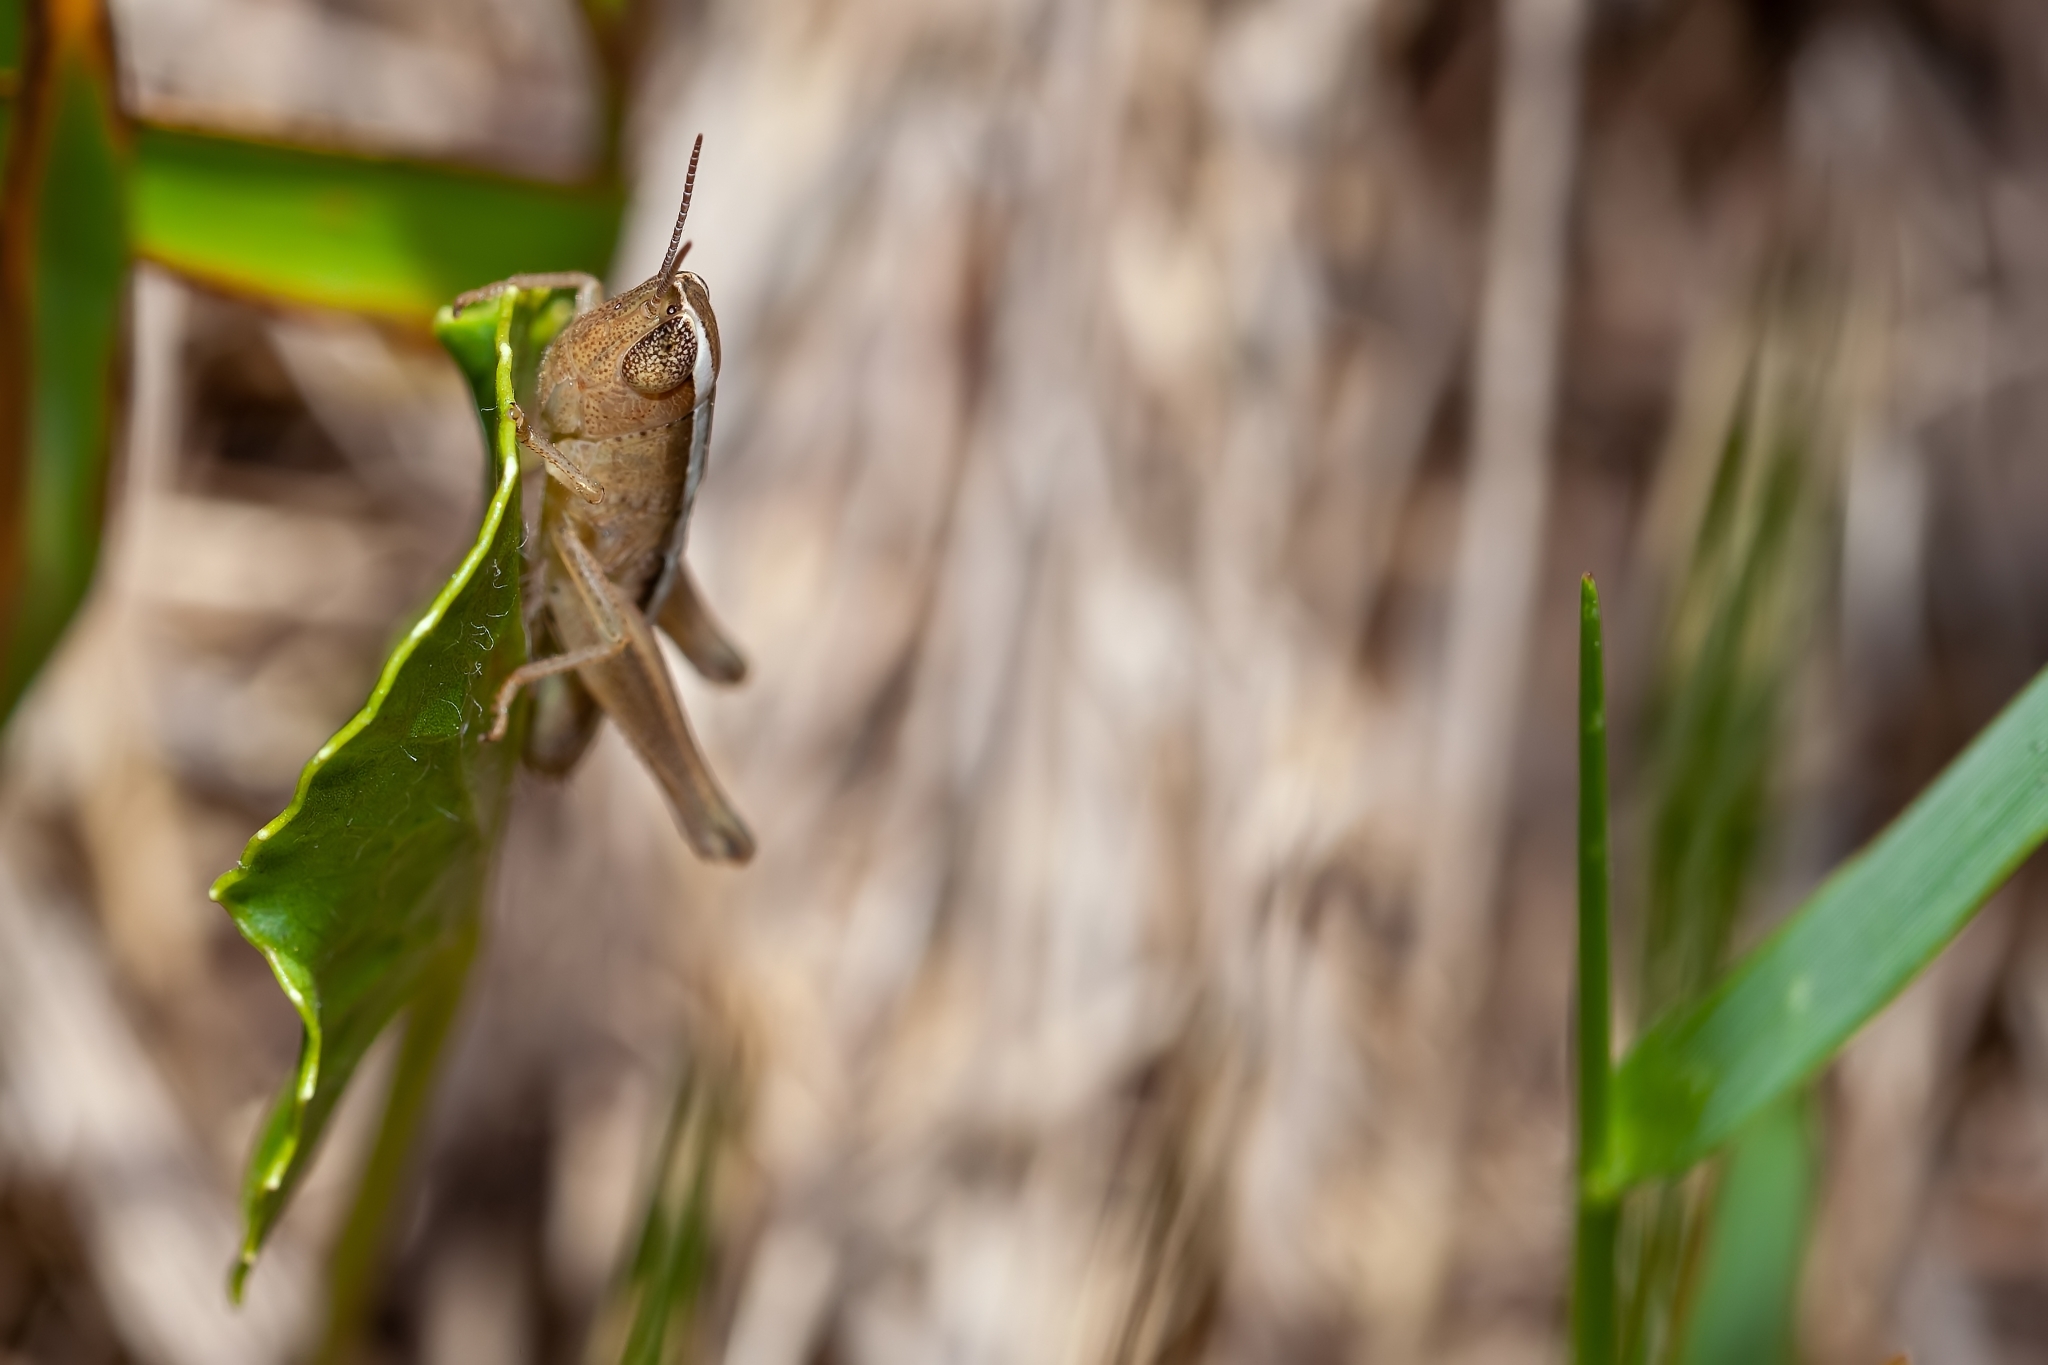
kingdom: Animalia
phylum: Arthropoda
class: Insecta
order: Orthoptera
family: Acrididae
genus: Dichromorpha
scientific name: Dichromorpha elegans
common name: Elegant grasshopper
